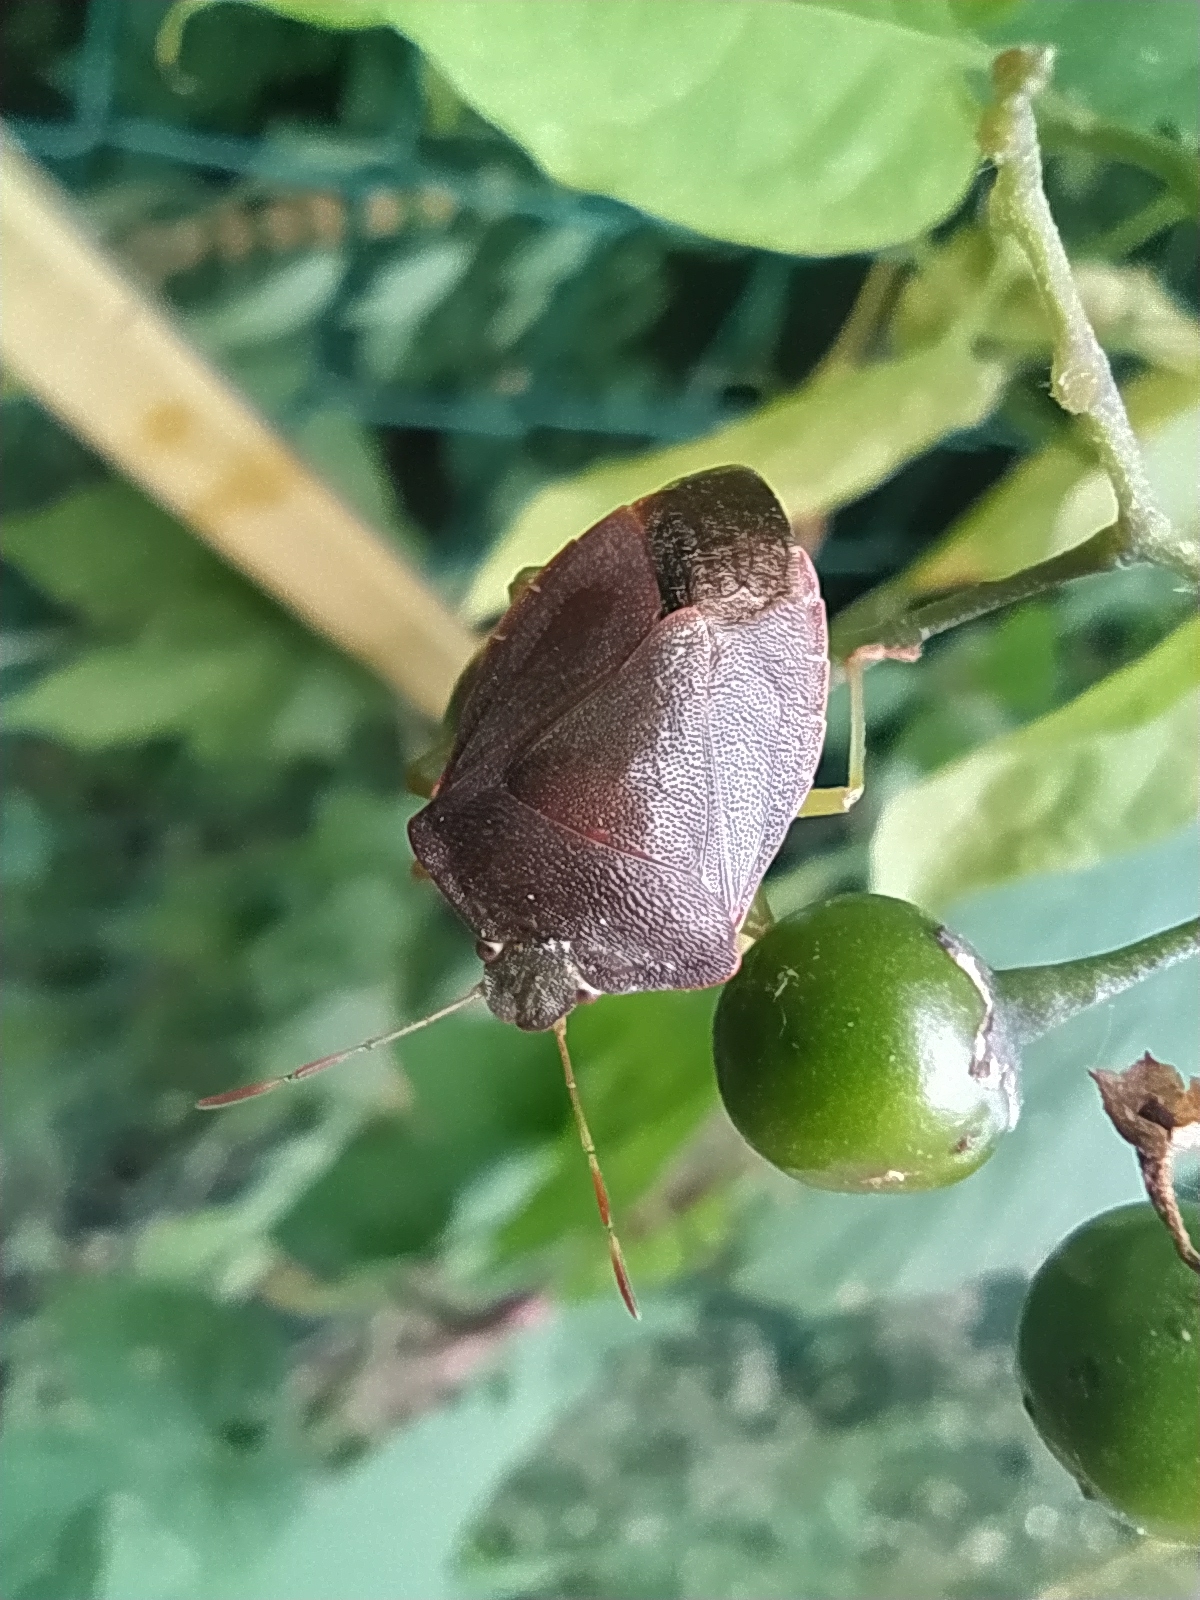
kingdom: Animalia
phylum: Arthropoda
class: Insecta
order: Hemiptera
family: Pentatomidae
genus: Palomena
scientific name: Palomena prasina
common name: Green shieldbug
